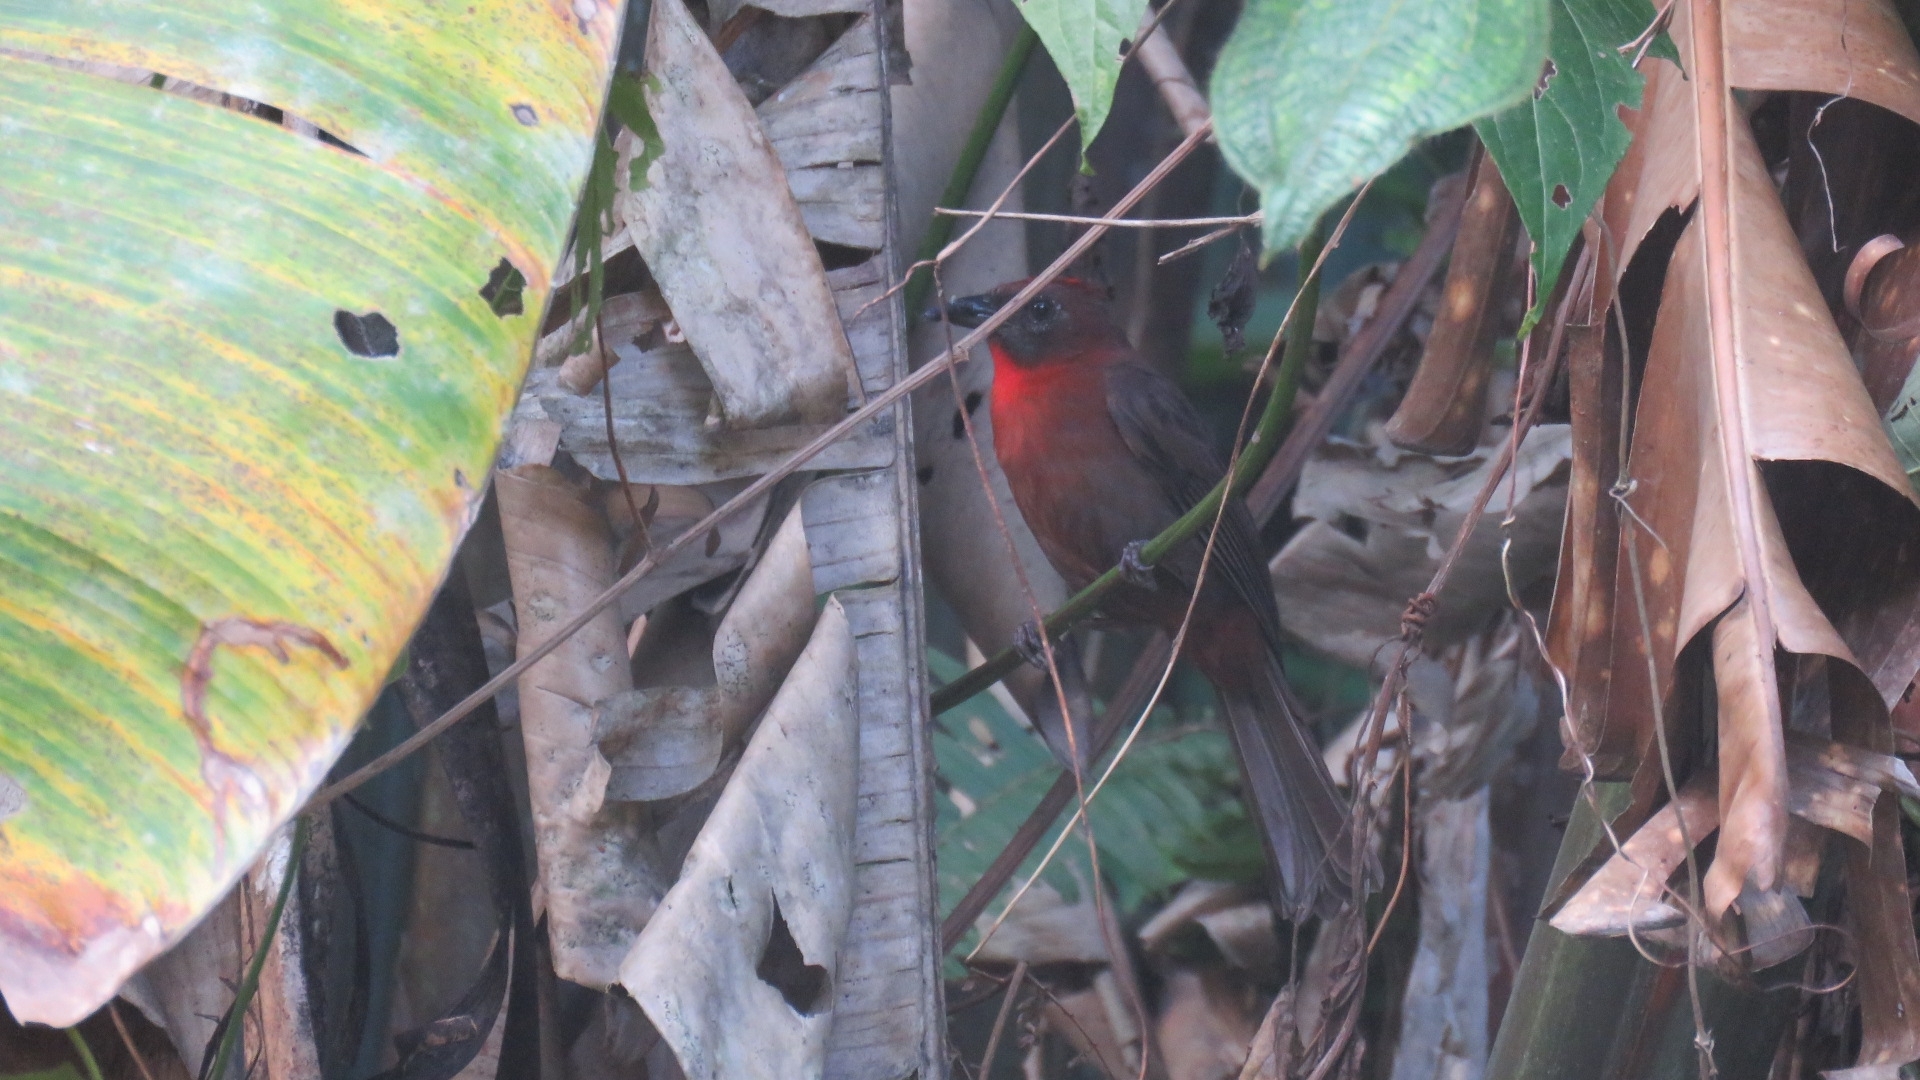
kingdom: Animalia
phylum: Chordata
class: Aves
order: Passeriformes
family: Cardinalidae
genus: Habia
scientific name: Habia fuscicauda
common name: Red-throated ant-tanager
